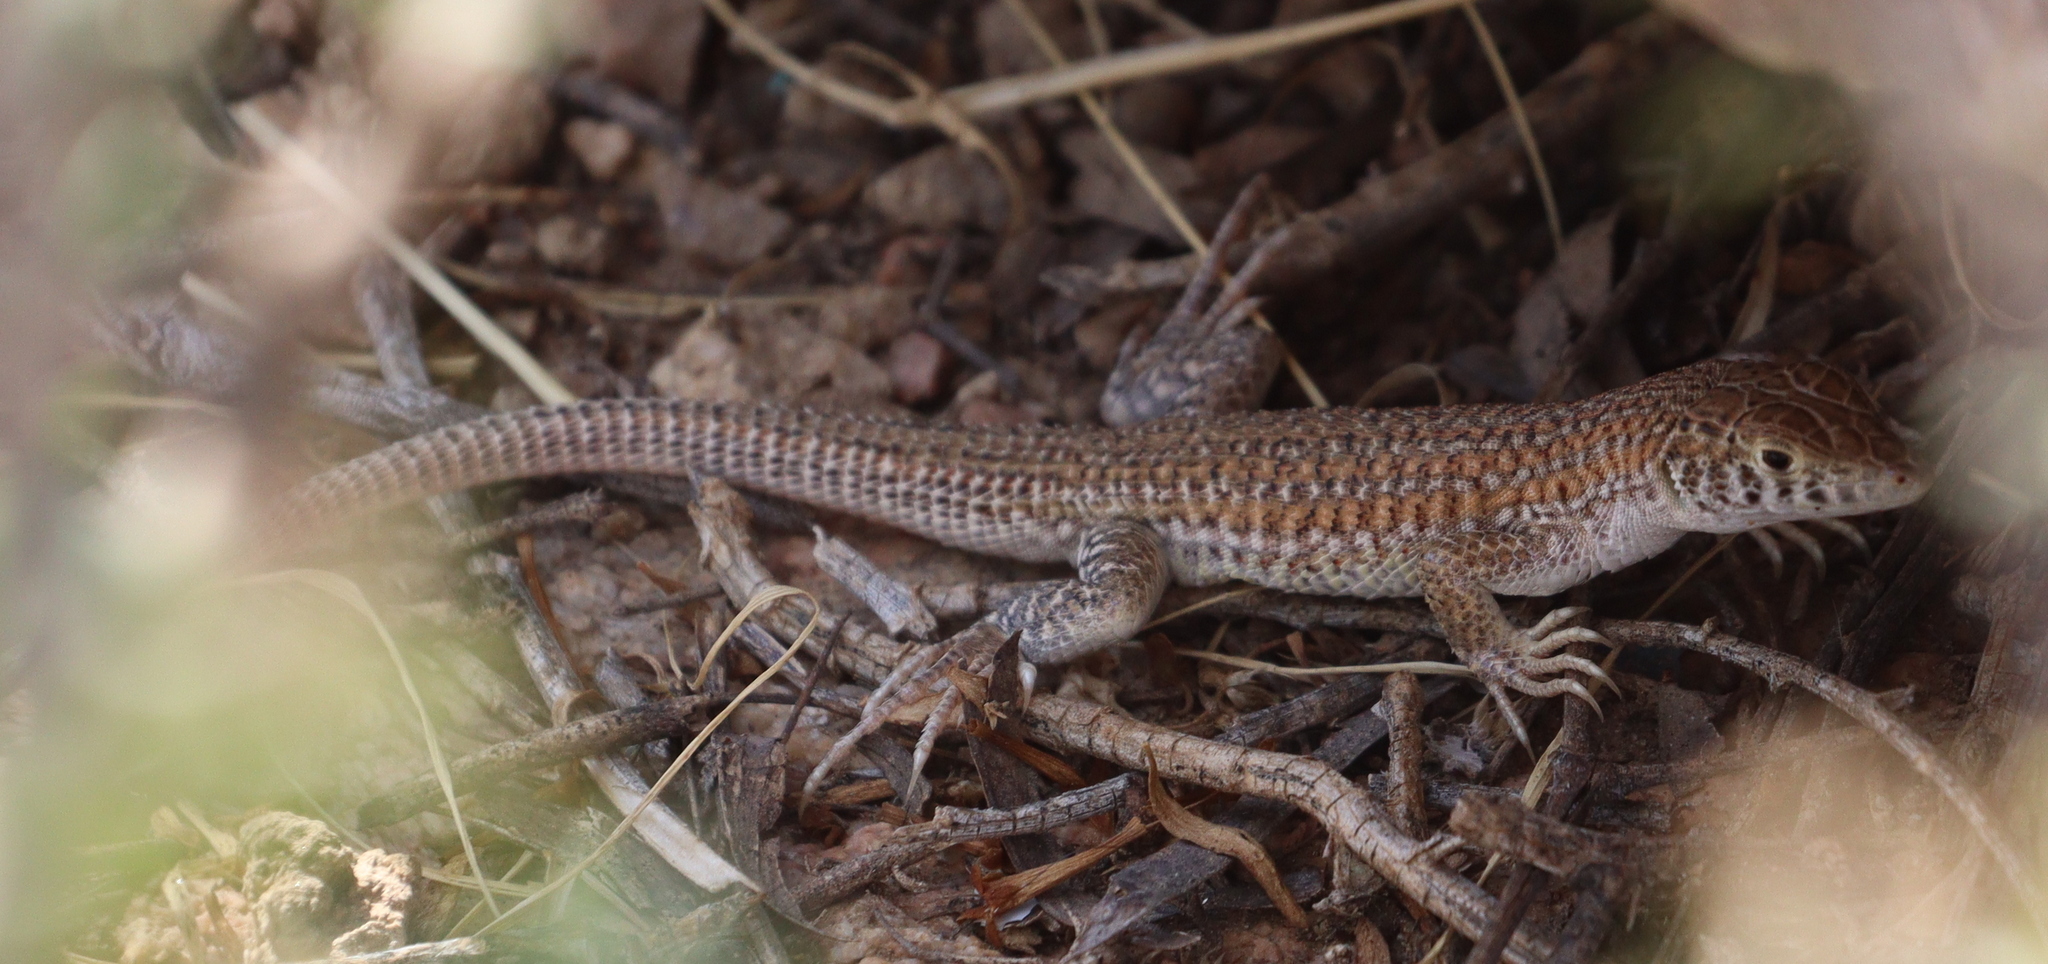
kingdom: Animalia
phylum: Chordata
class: Squamata
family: Lacertidae
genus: Acanthodactylus
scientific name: Acanthodactylus boskianus
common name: Bosc’s fringe-toed lizard
